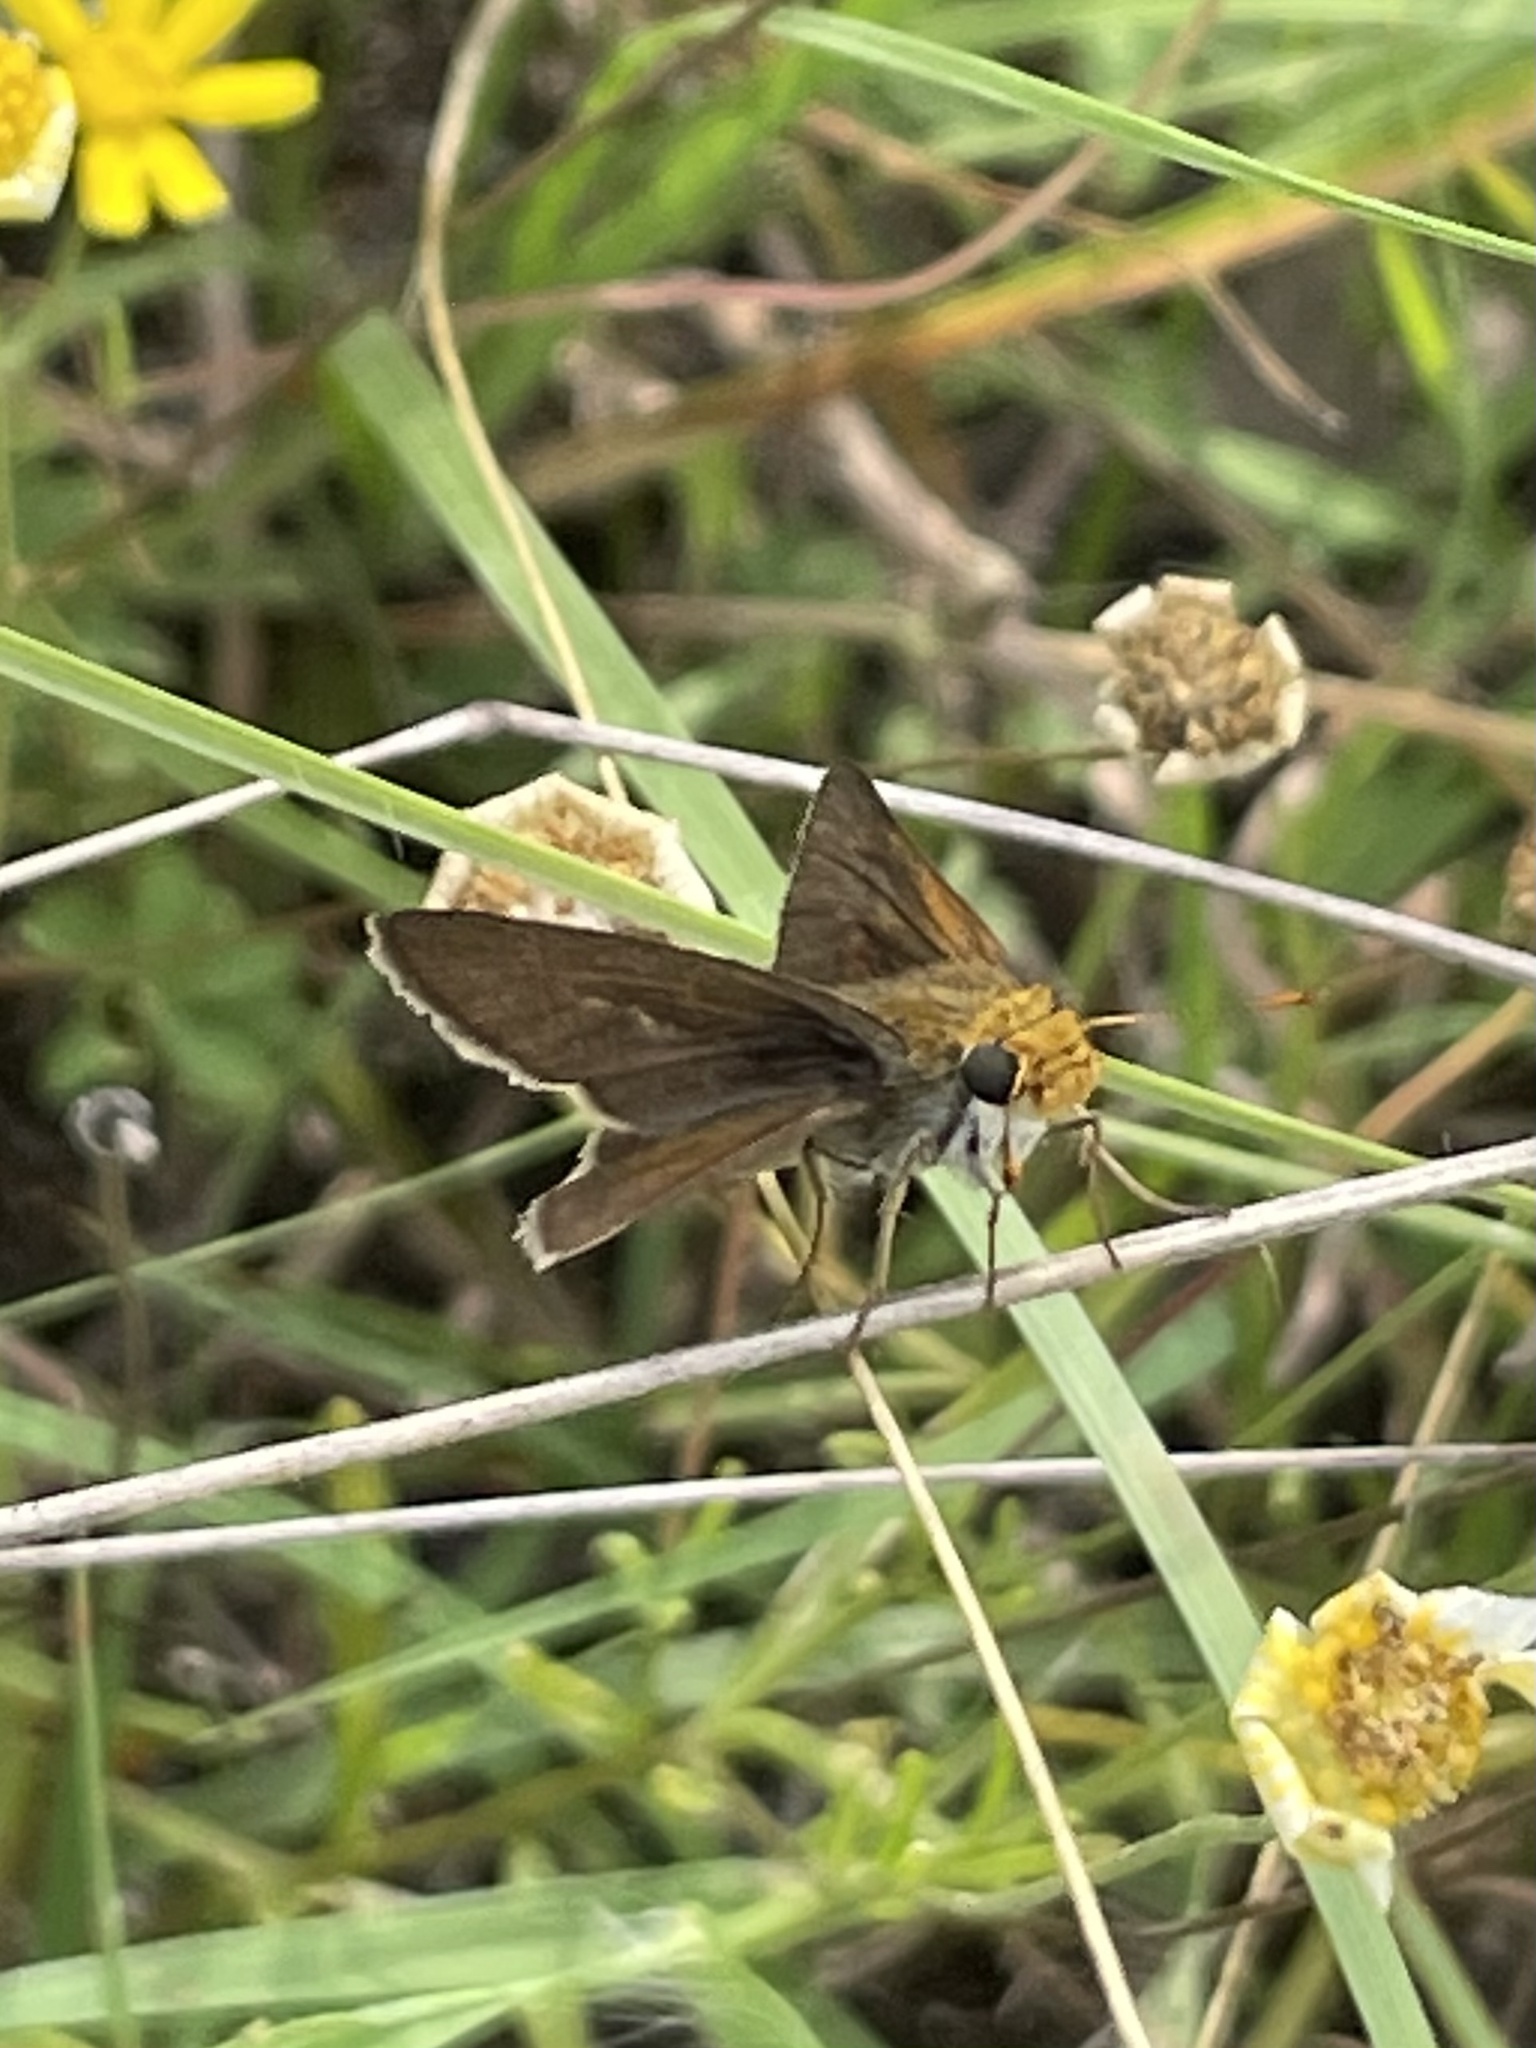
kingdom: Animalia
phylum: Arthropoda
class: Insecta
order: Lepidoptera
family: Hesperiidae
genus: Euphyes
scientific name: Euphyes vestris
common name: Dun skipper
